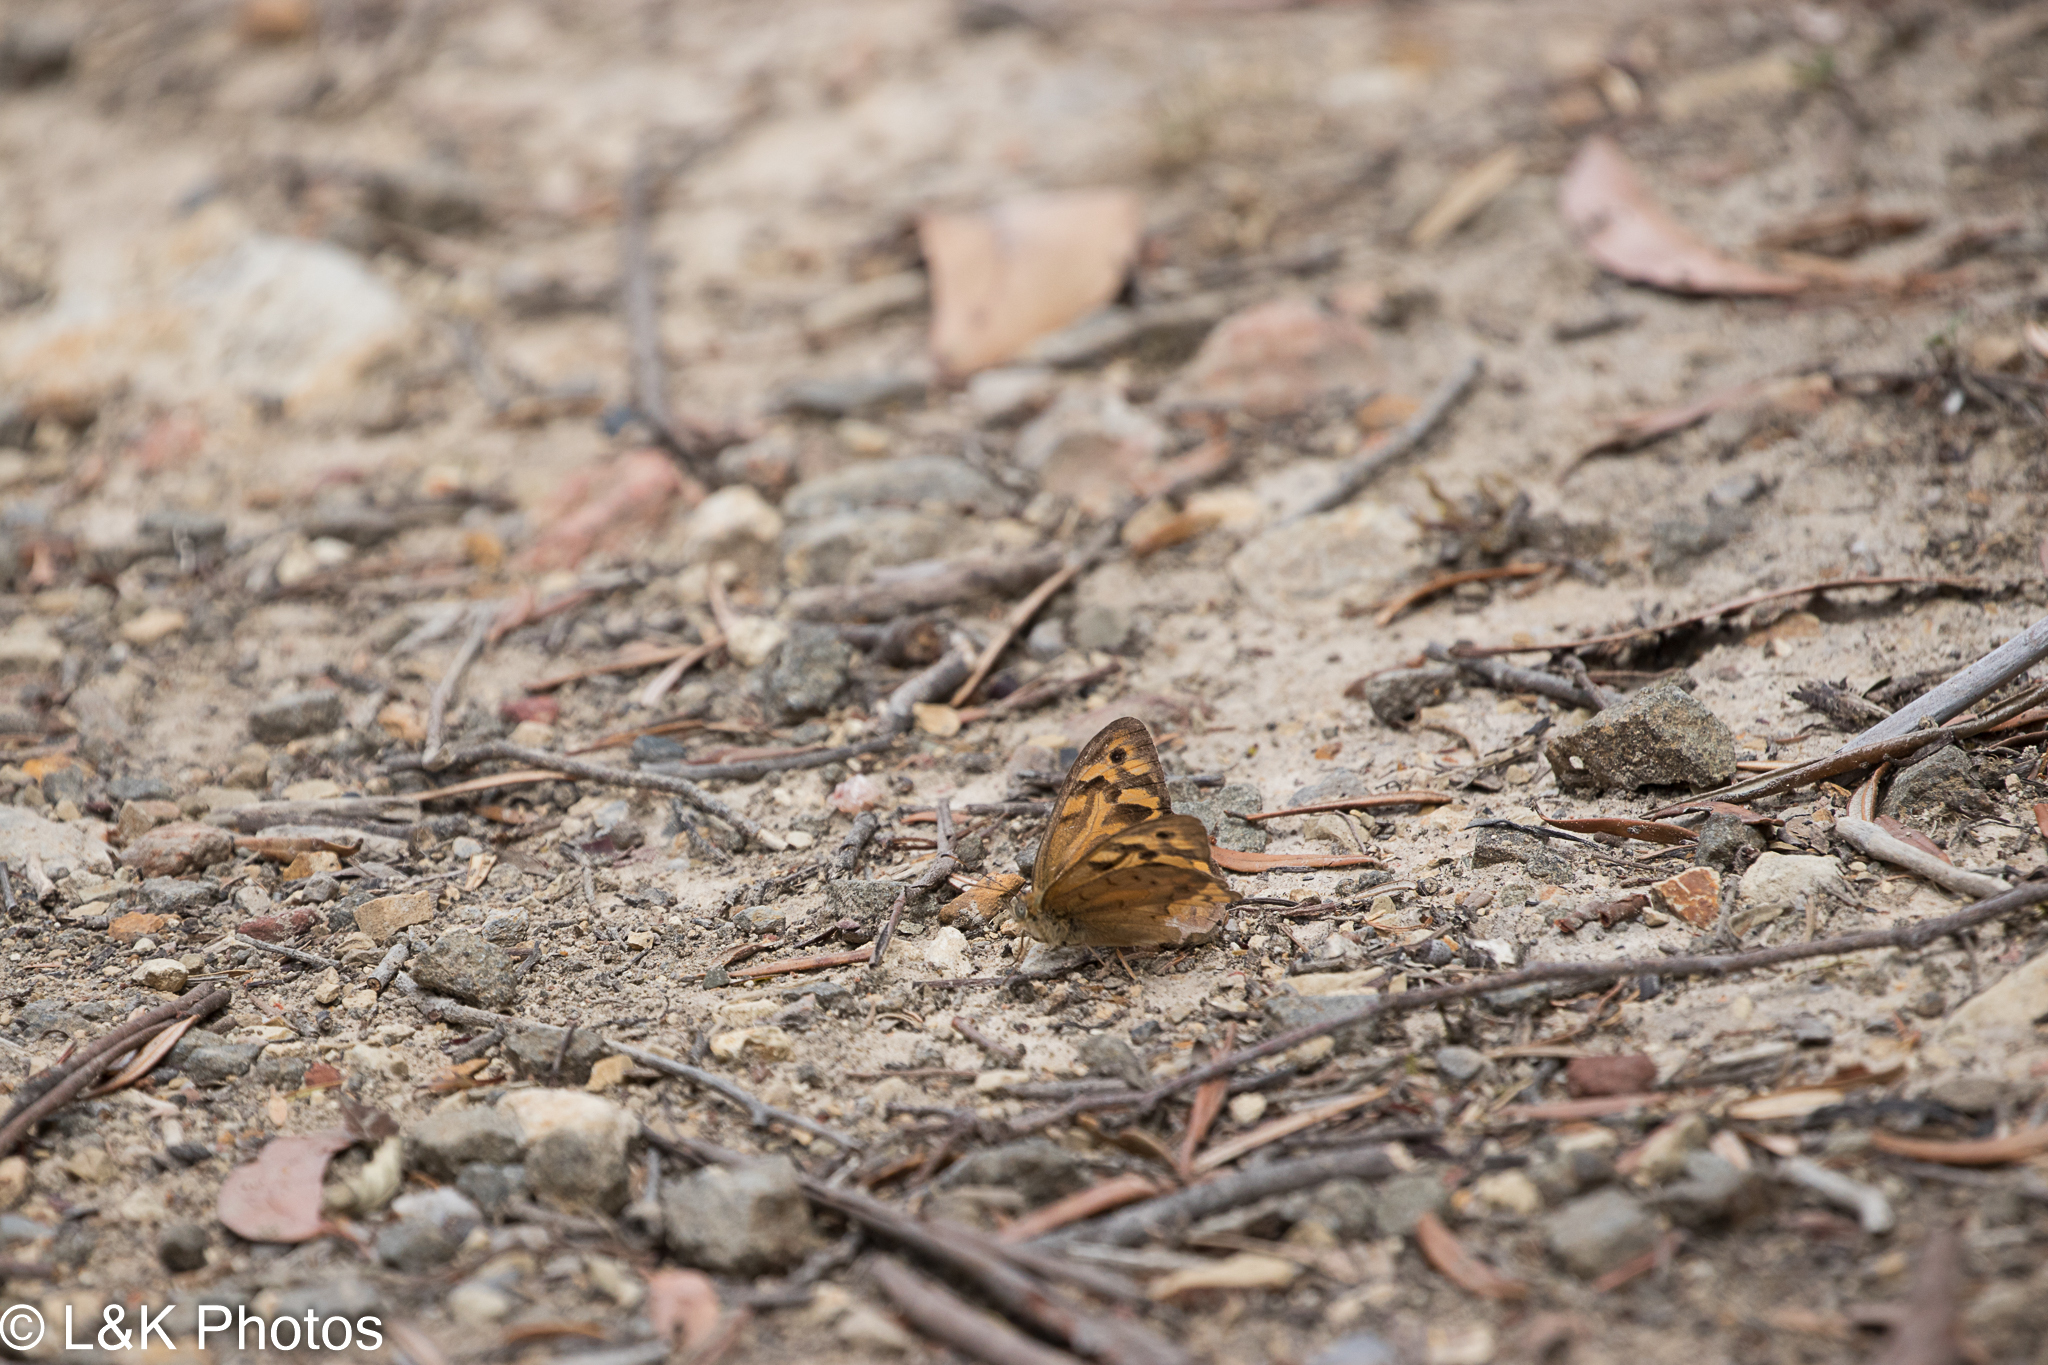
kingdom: Animalia
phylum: Arthropoda
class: Insecta
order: Lepidoptera
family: Nymphalidae
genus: Heteronympha
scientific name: Heteronympha merope
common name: Common brown
